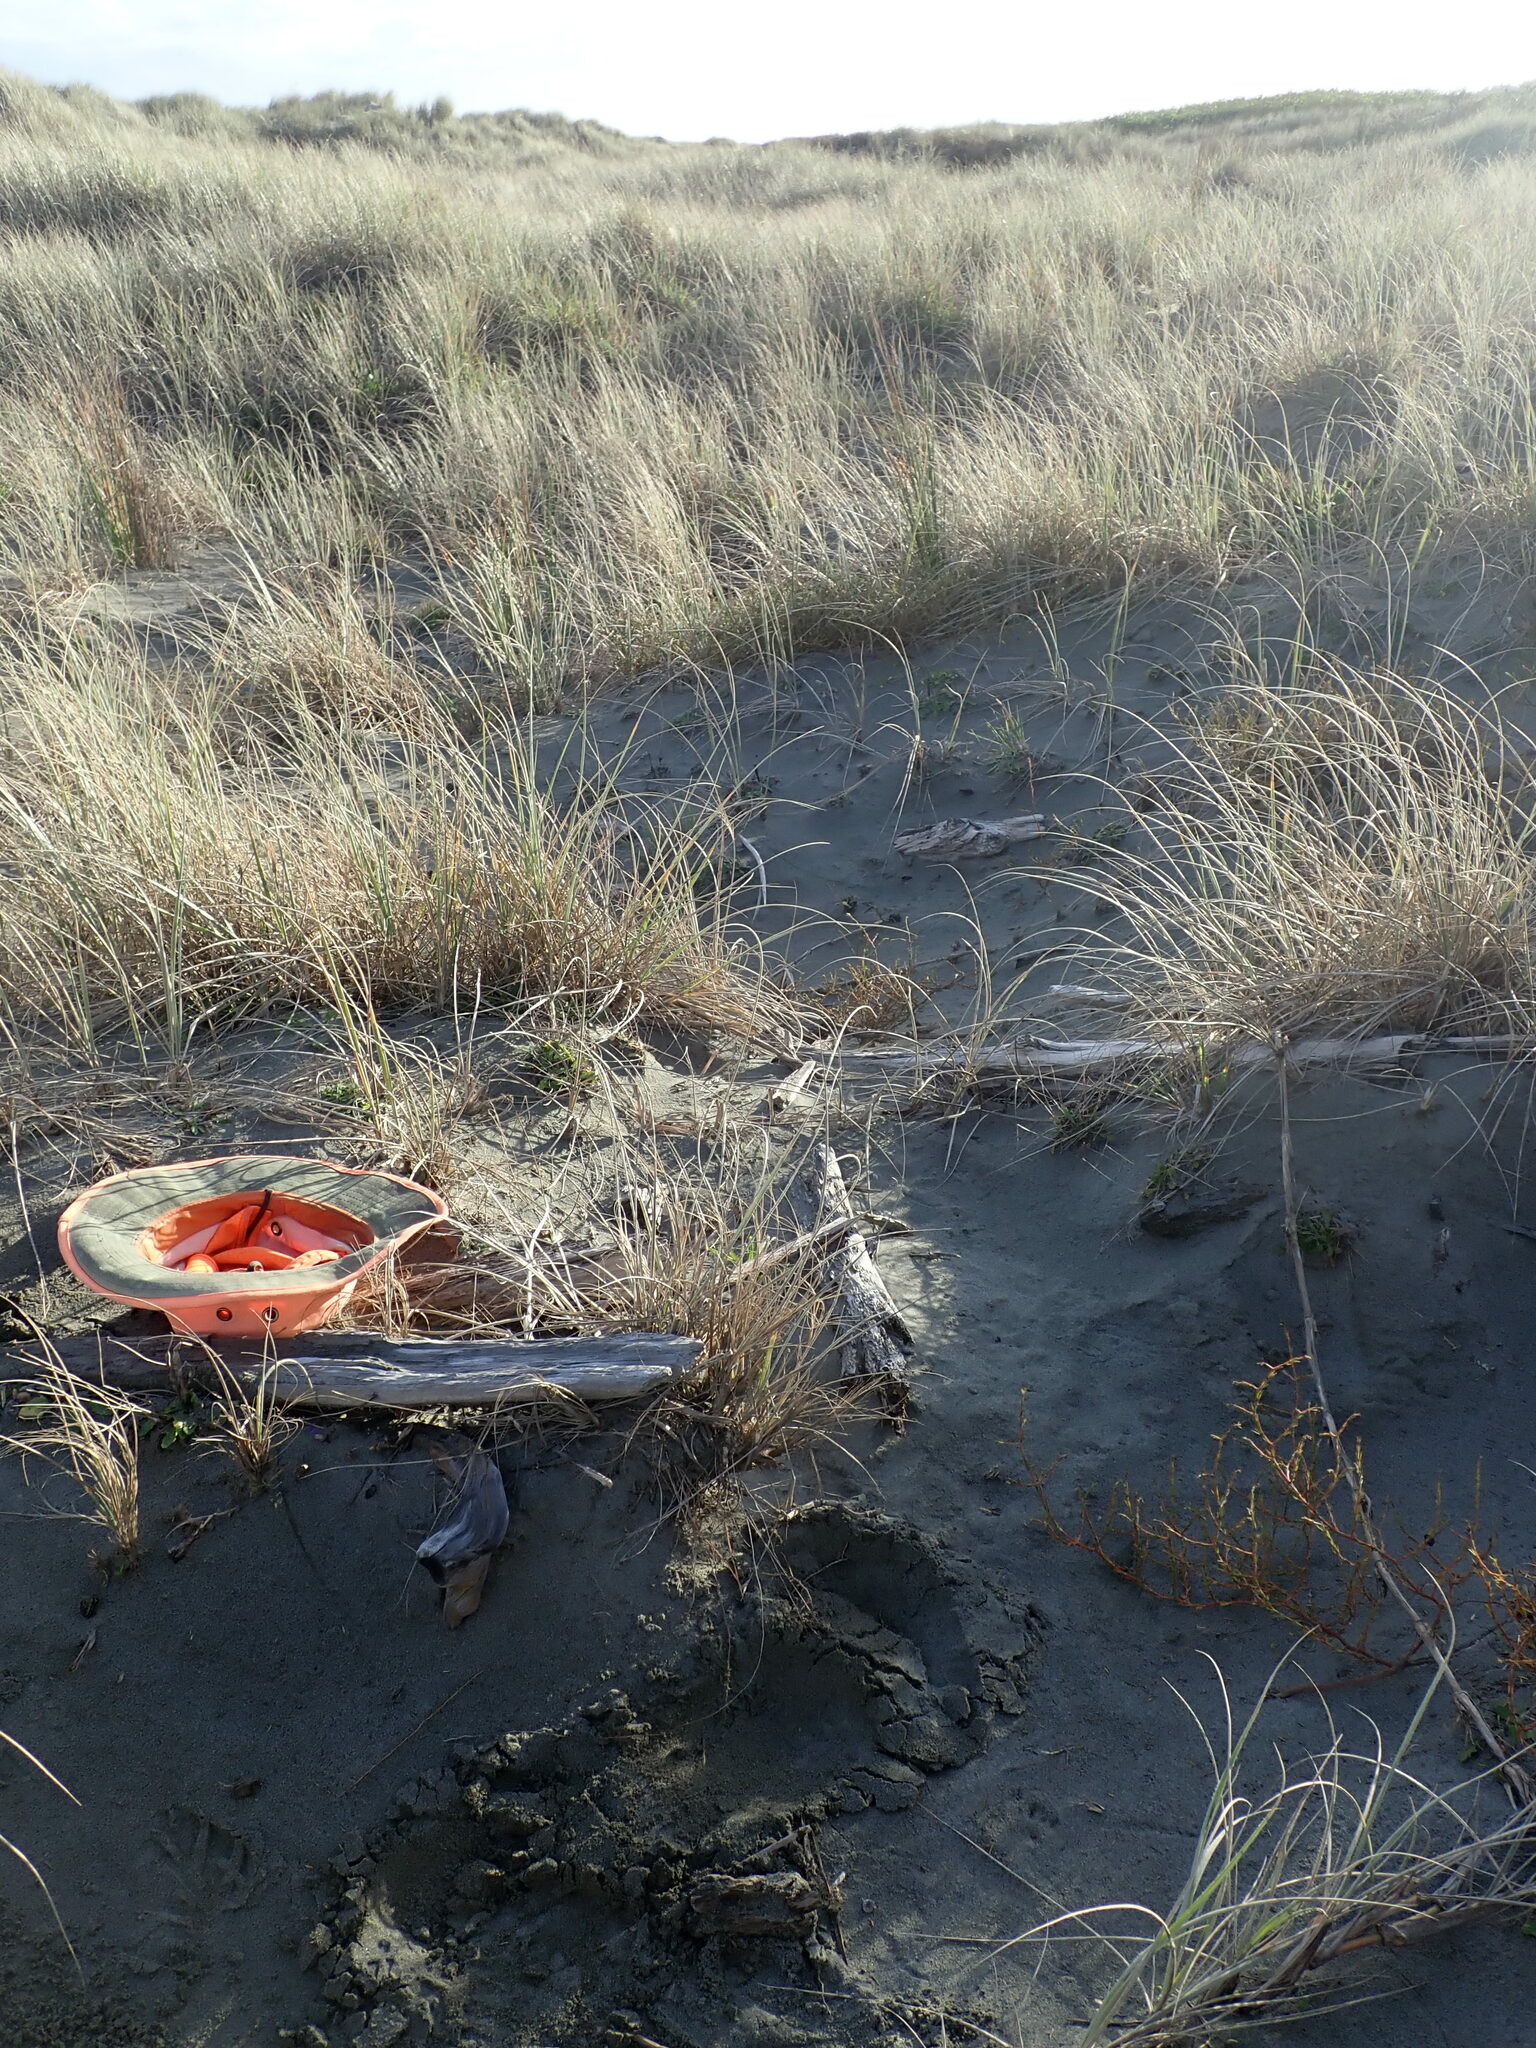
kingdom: Animalia
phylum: Arthropoda
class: Arachnida
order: Araneae
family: Theridiidae
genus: Latrodectus
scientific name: Latrodectus katipo
